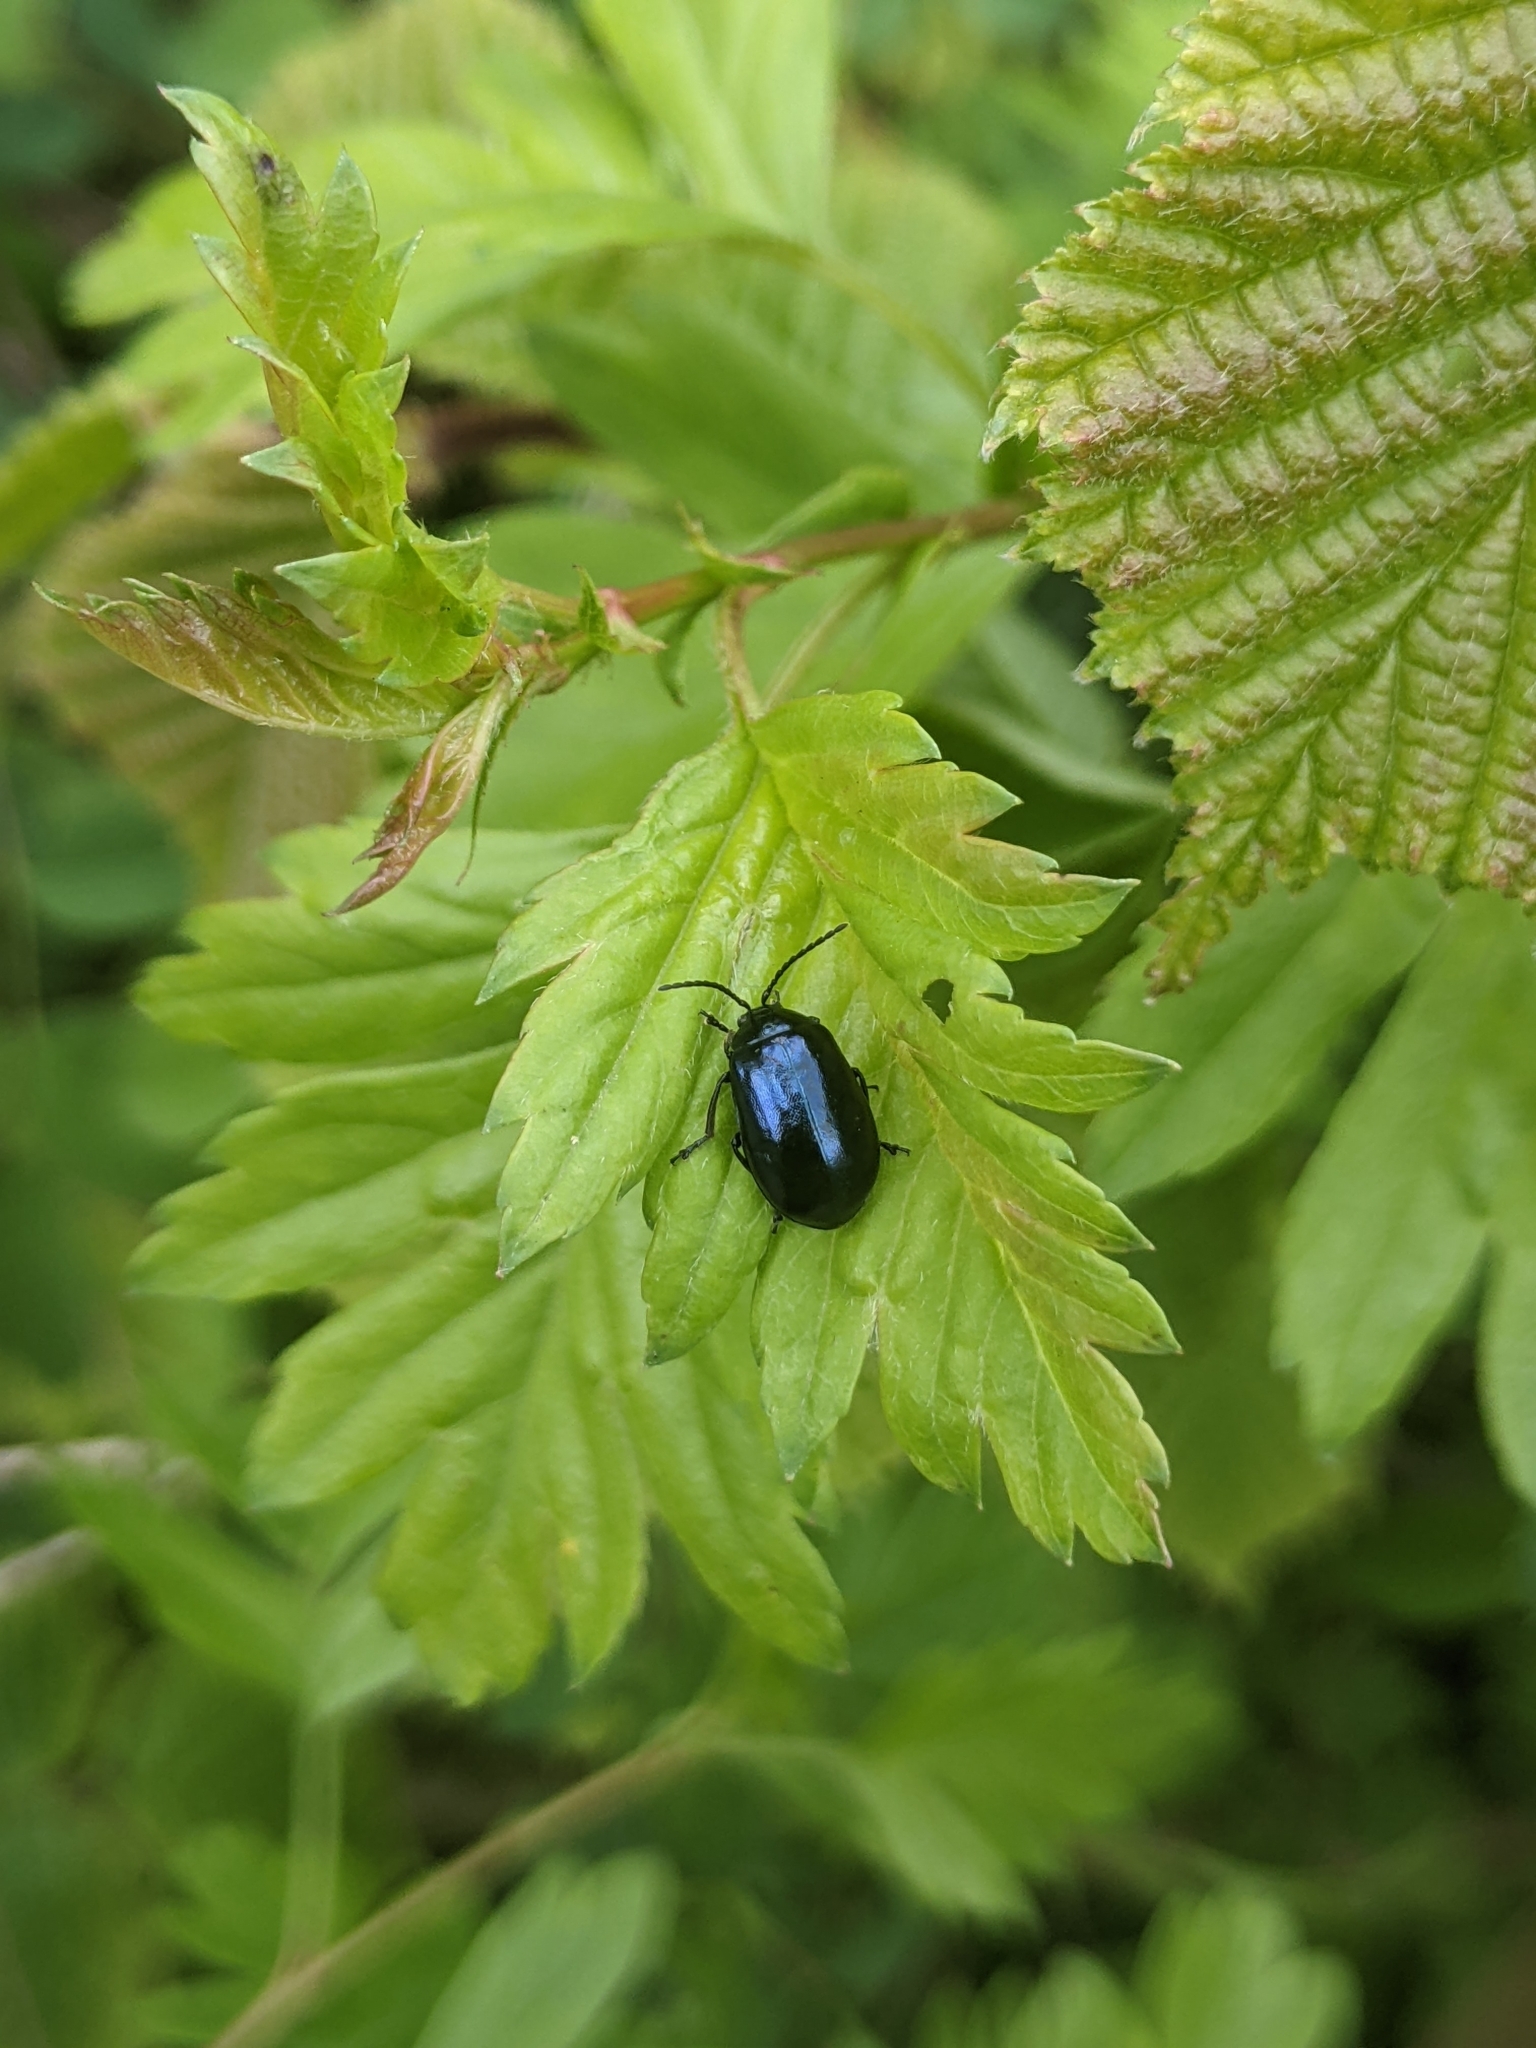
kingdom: Animalia
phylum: Arthropoda
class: Insecta
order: Coleoptera
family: Chrysomelidae
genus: Agelastica
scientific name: Agelastica alni
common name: Alder leaf beetle
